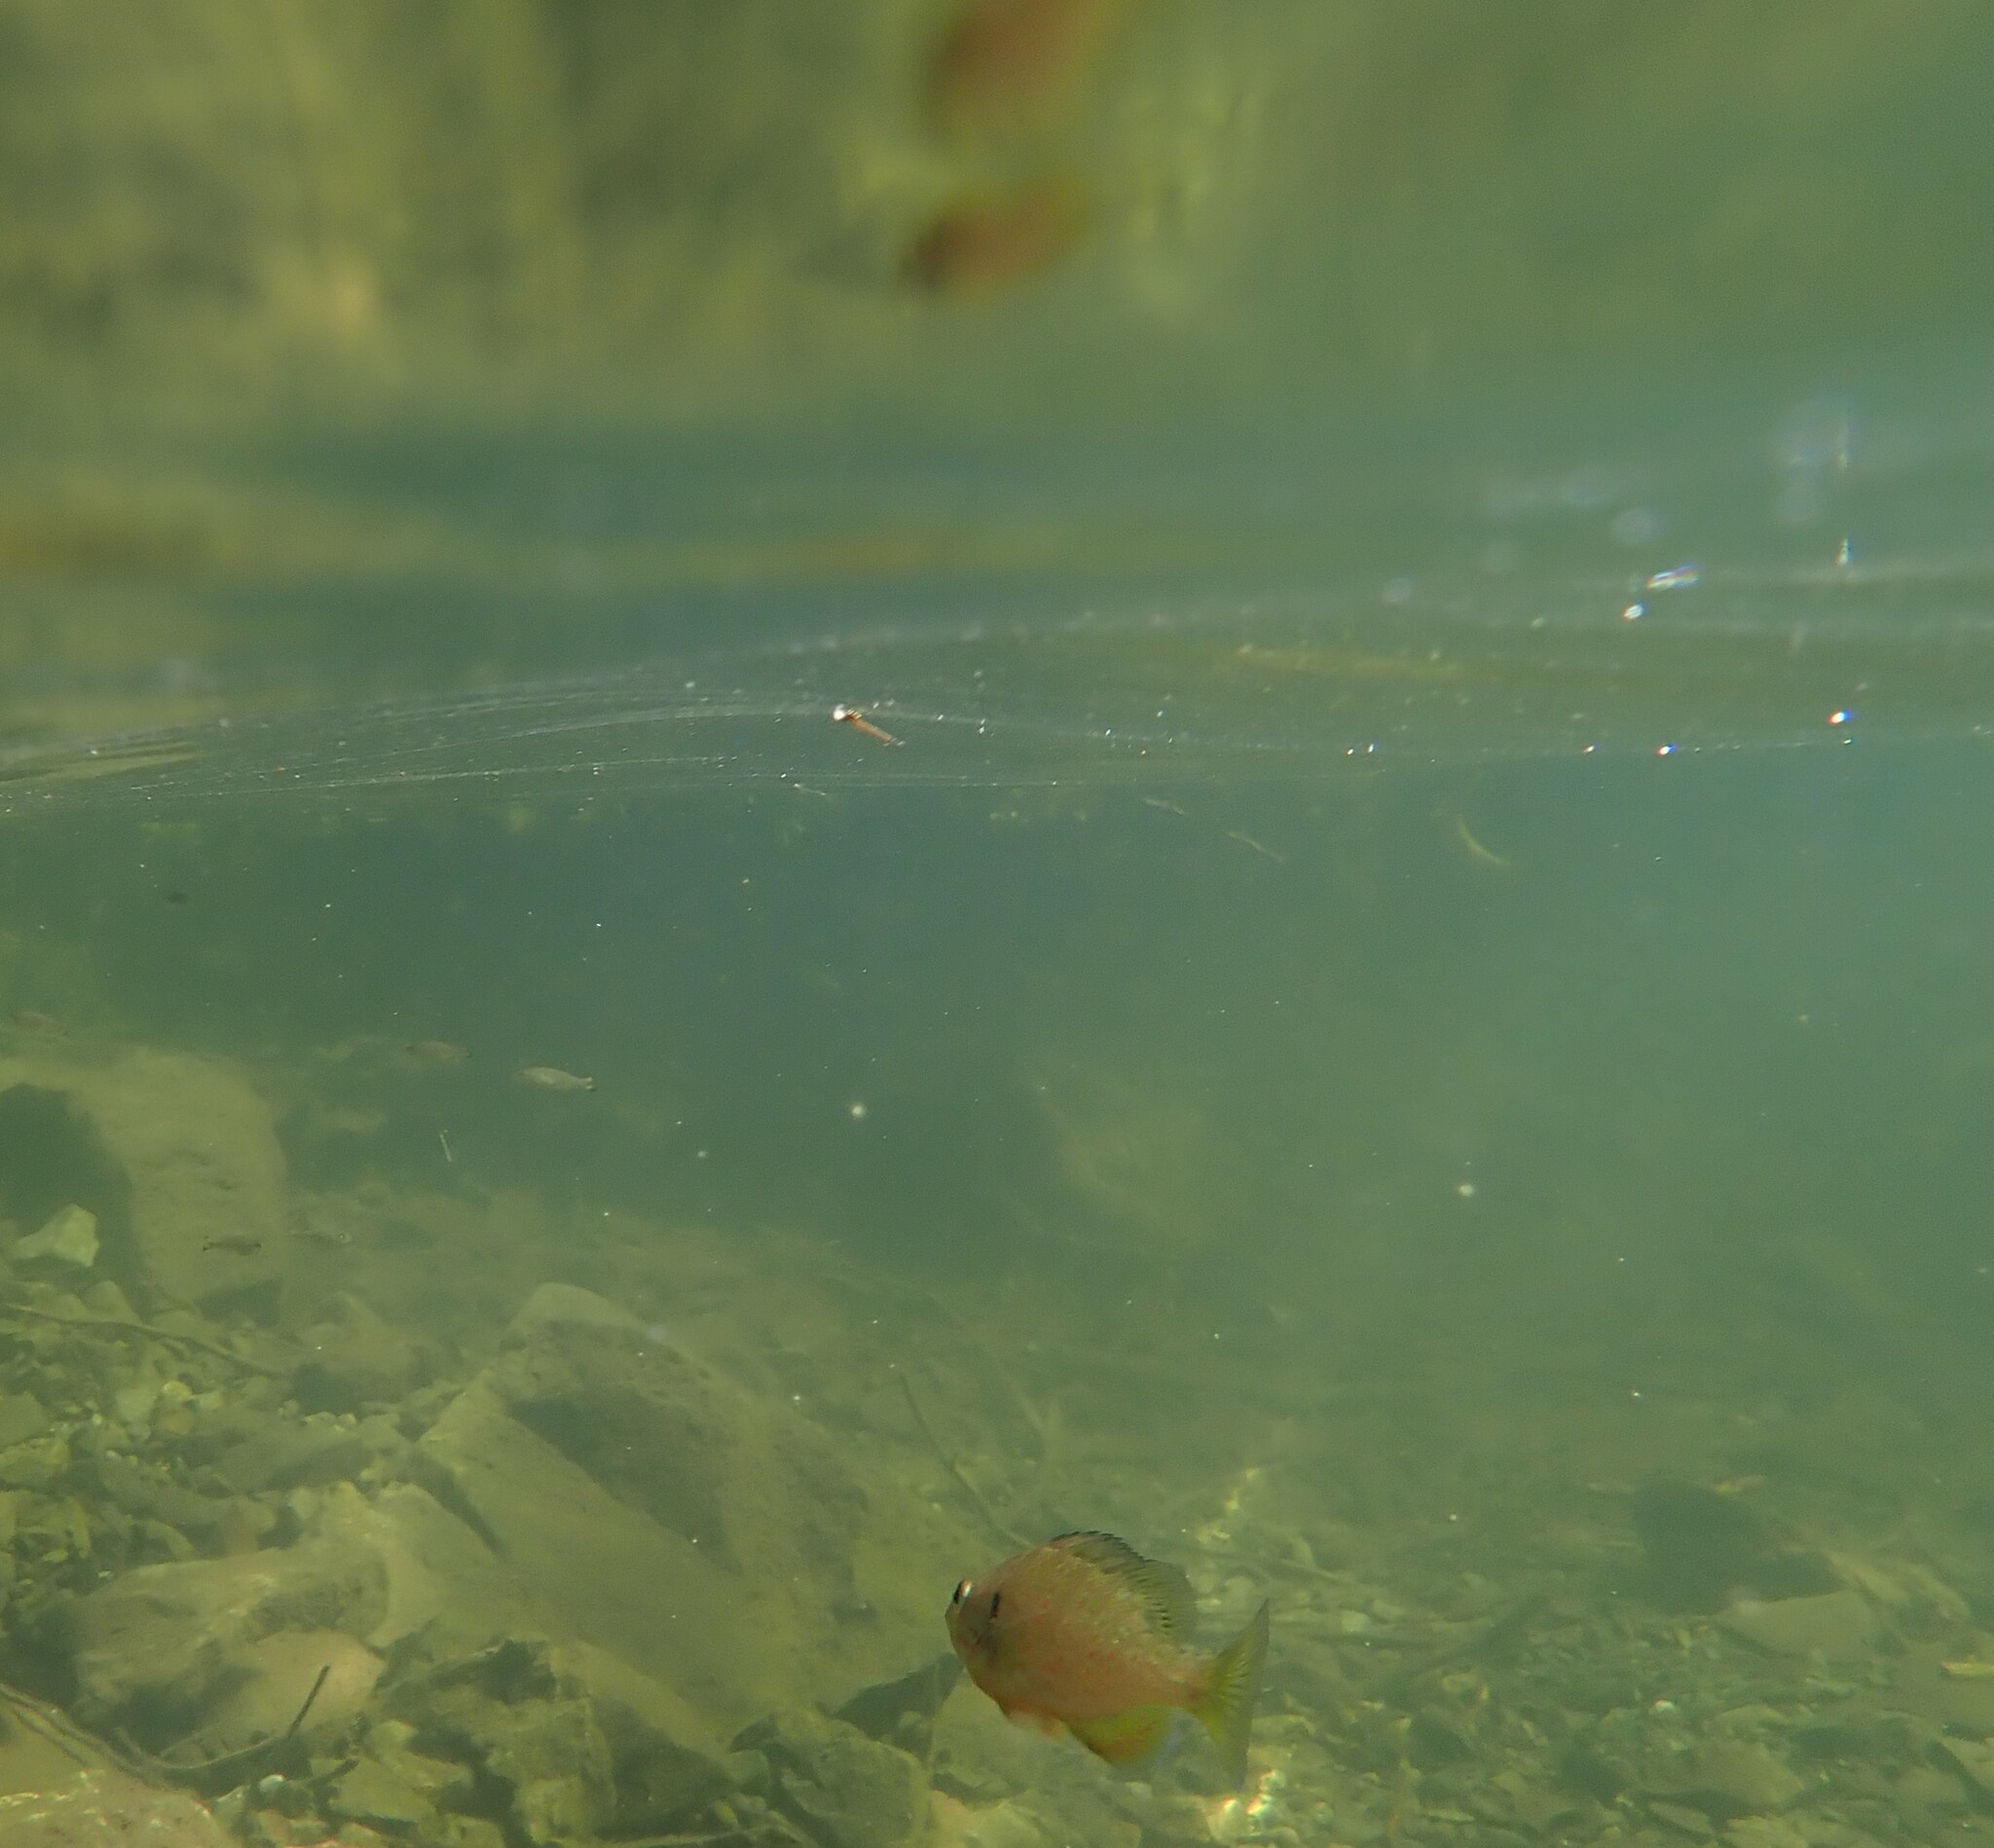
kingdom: Animalia
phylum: Chordata
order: Perciformes
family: Centrarchidae
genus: Lepomis
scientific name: Lepomis gibbosus
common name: Pumpkinseed
